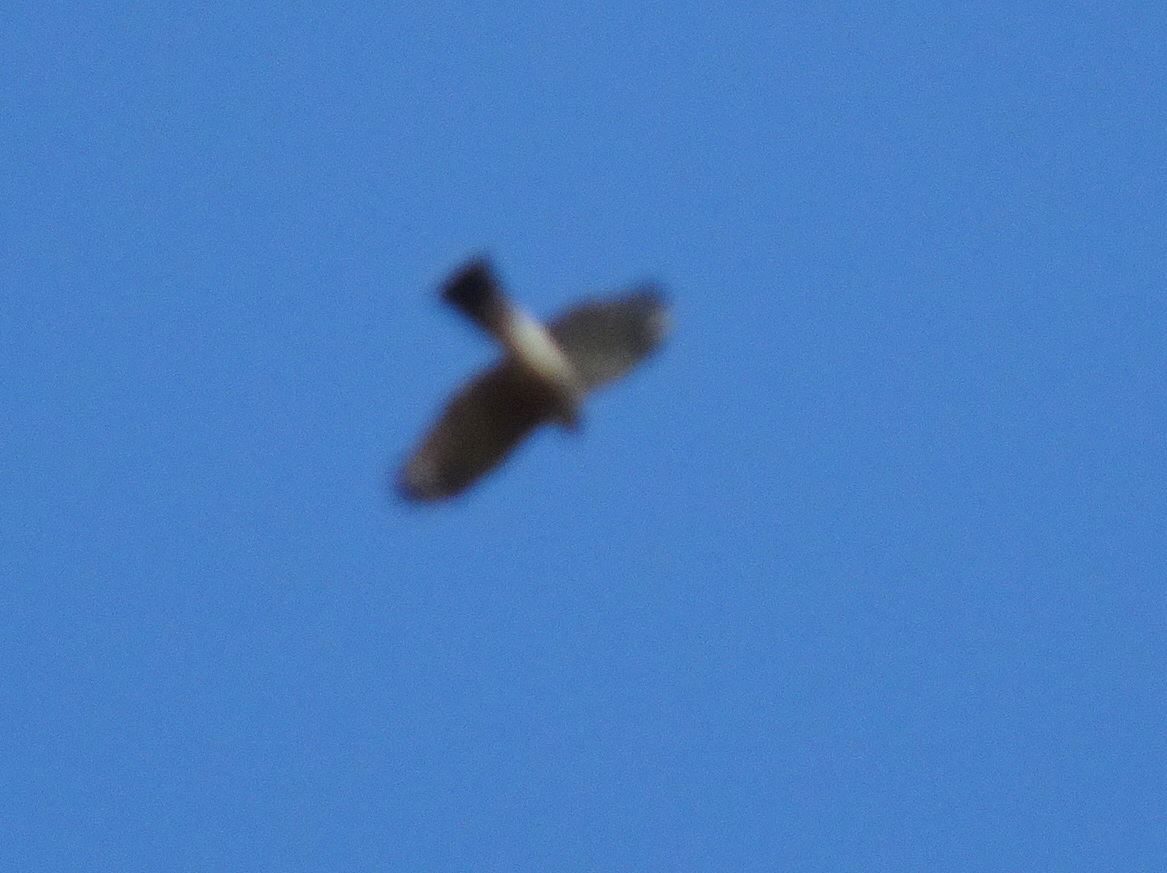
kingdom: Animalia
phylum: Chordata
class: Aves
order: Accipitriformes
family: Accipitridae
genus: Accipiter
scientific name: Accipiter striatus
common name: Sharp-shinned hawk
